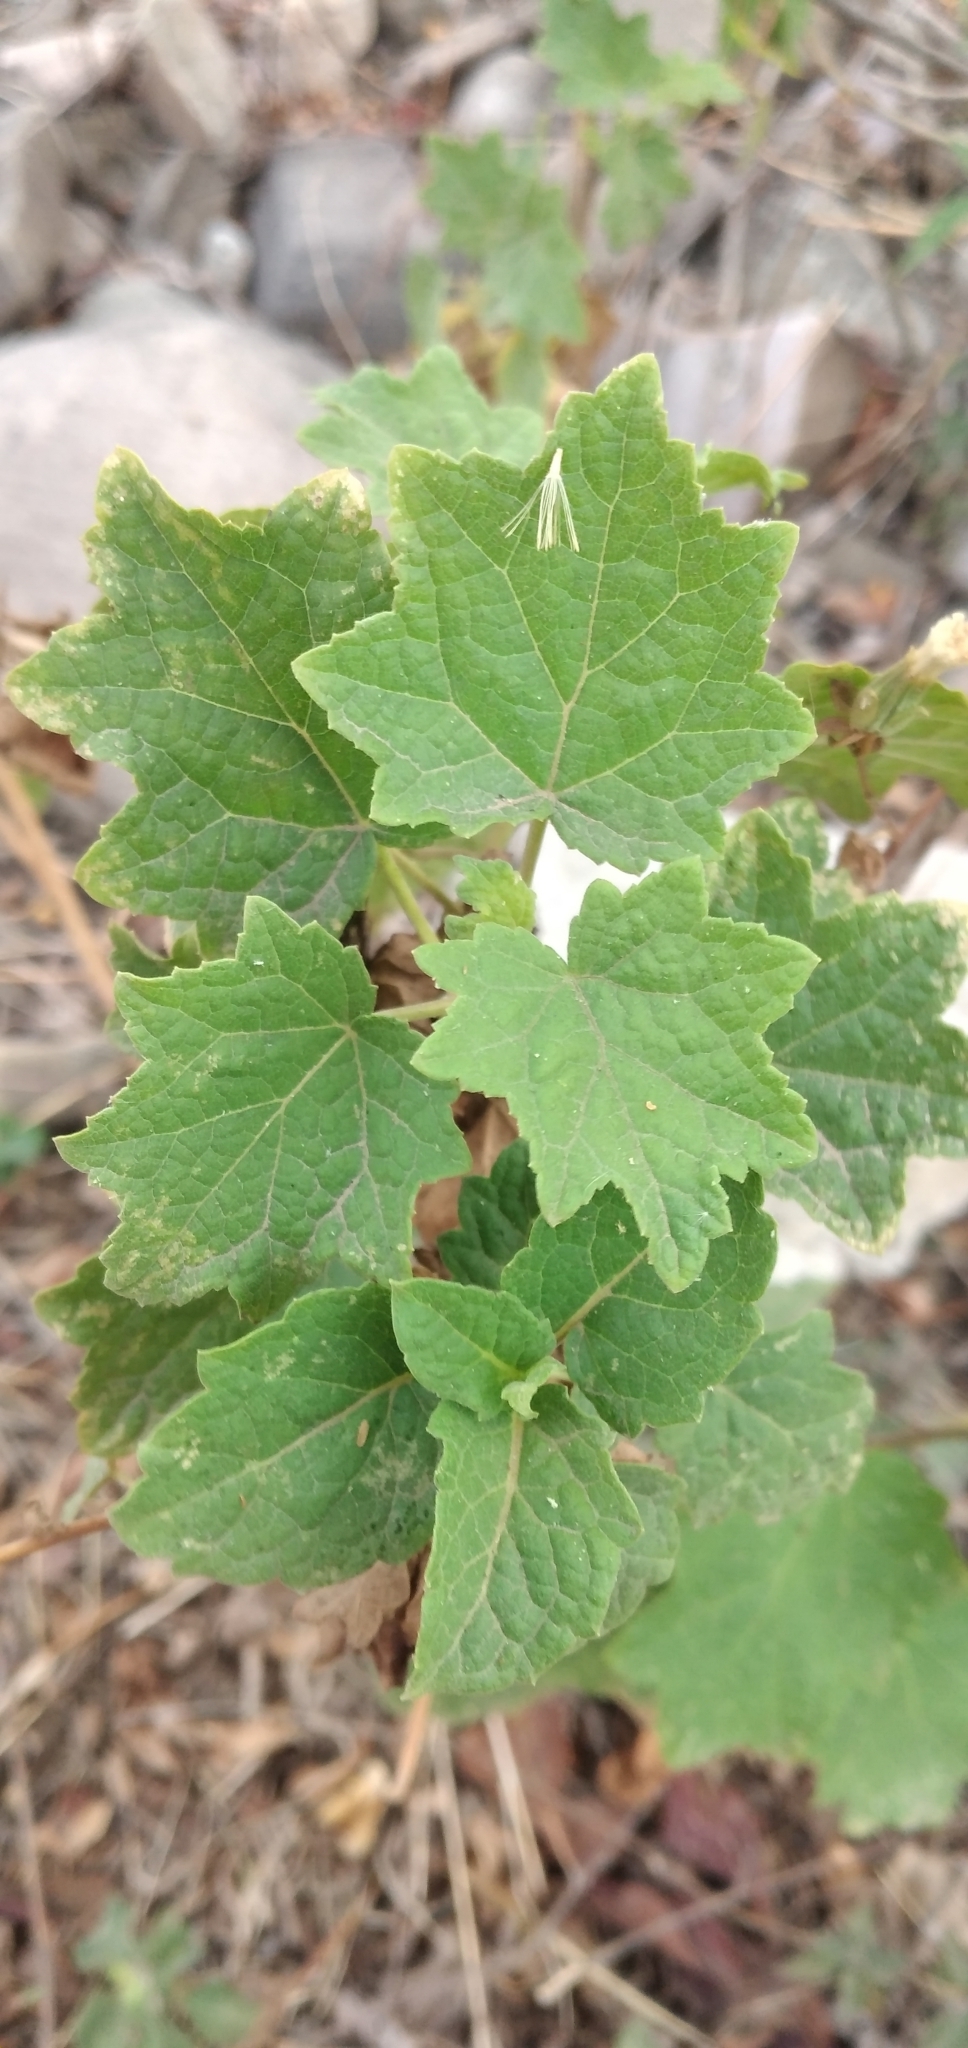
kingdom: Plantae
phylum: Tracheophyta
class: Magnoliopsida
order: Asterales
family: Asteraceae
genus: Jungia
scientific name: Jungia polita
